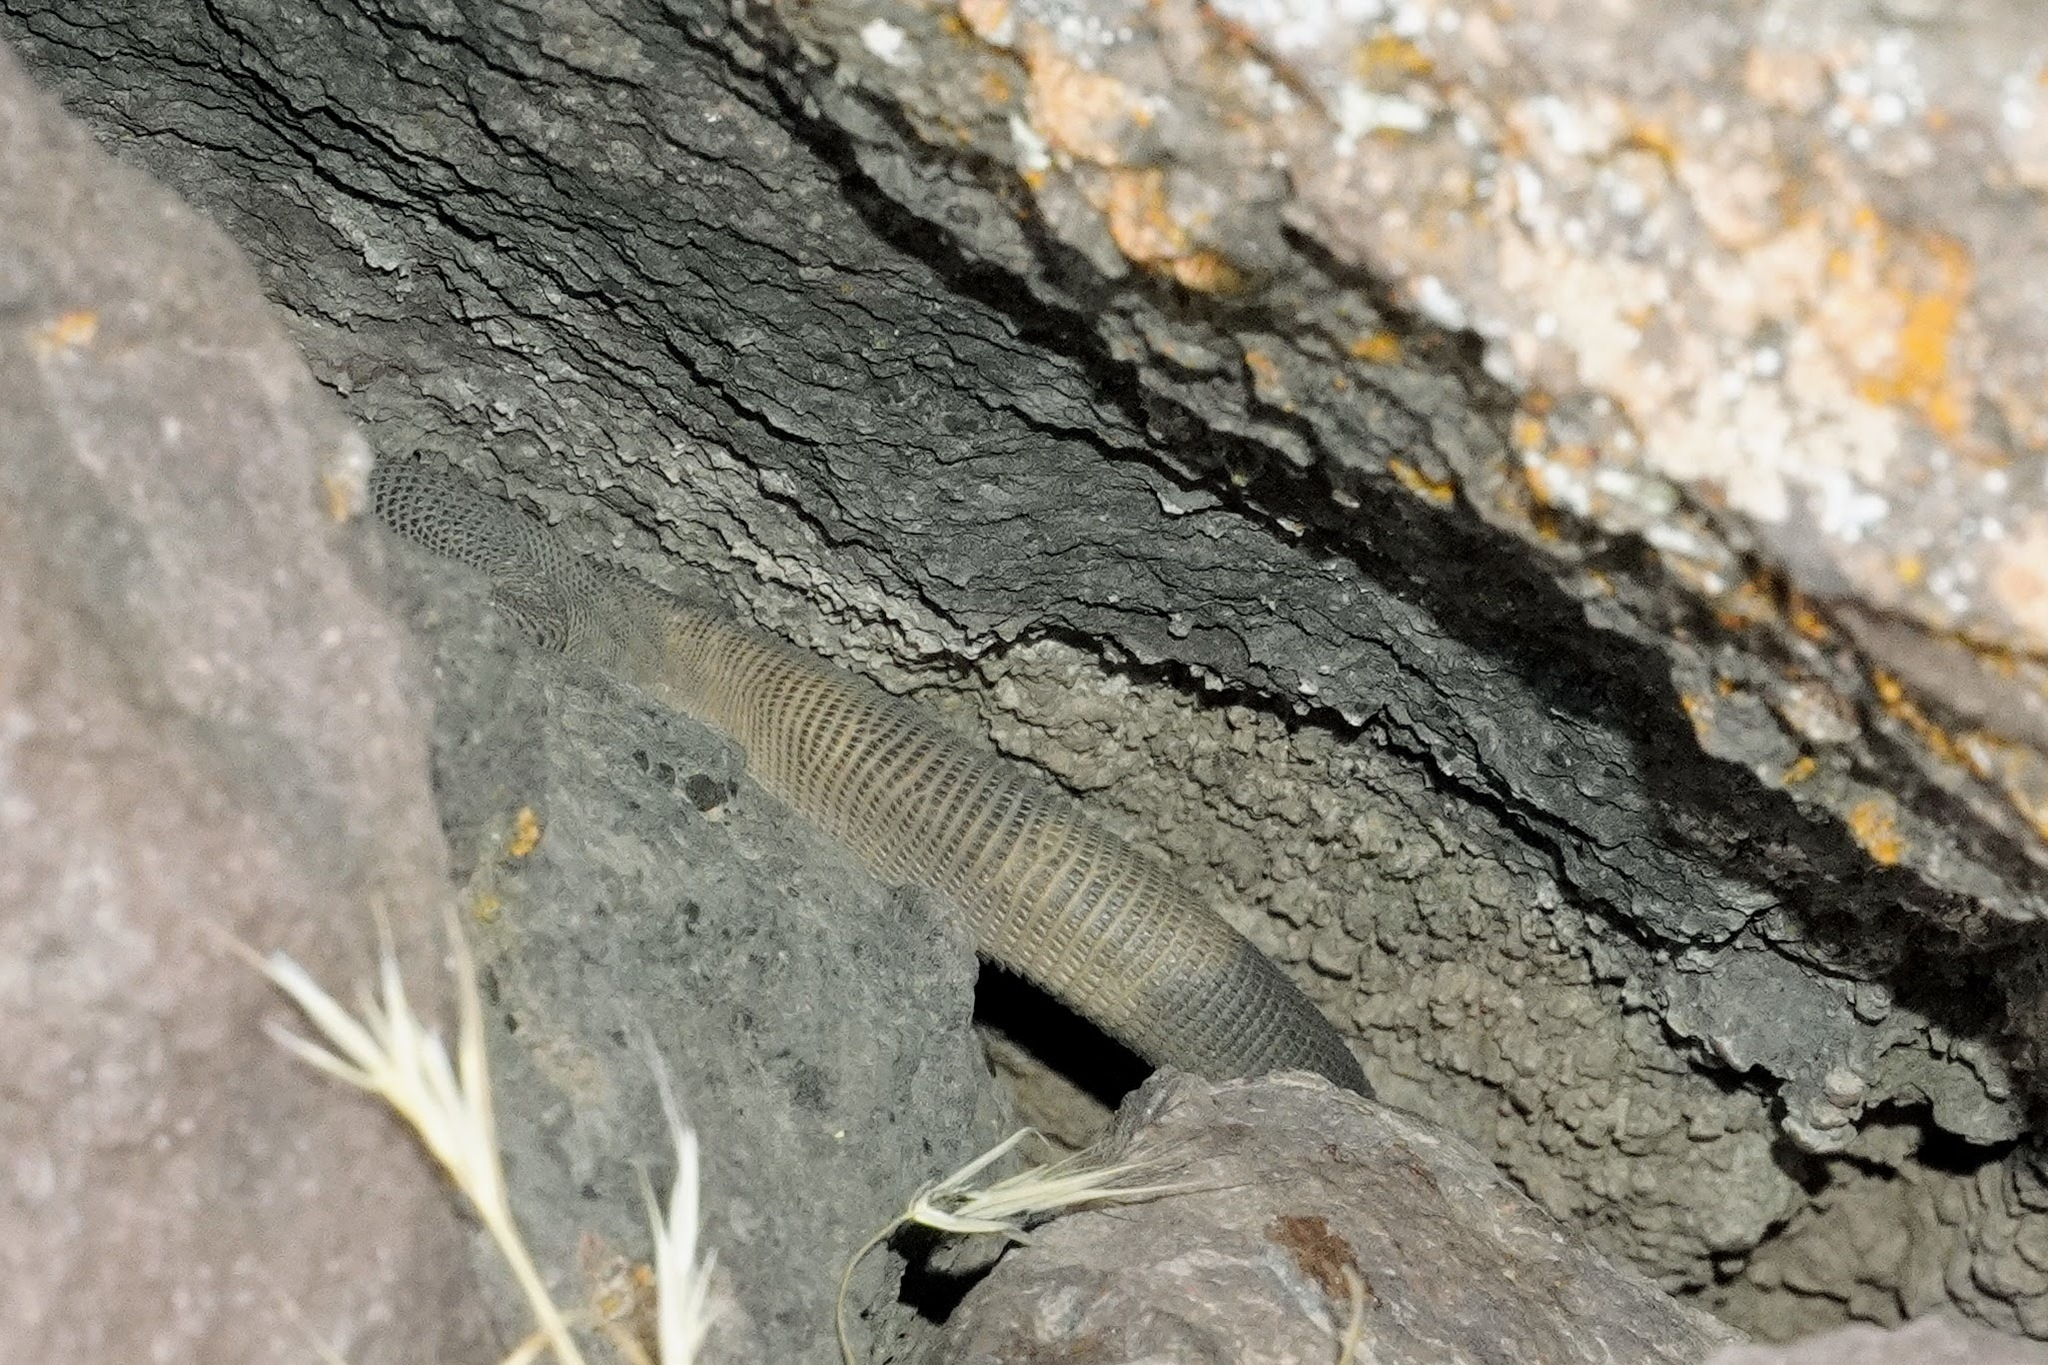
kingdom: Animalia
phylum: Chordata
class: Squamata
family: Iguanidae
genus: Sauromalus
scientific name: Sauromalus ater
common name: Northern chuckwalla
